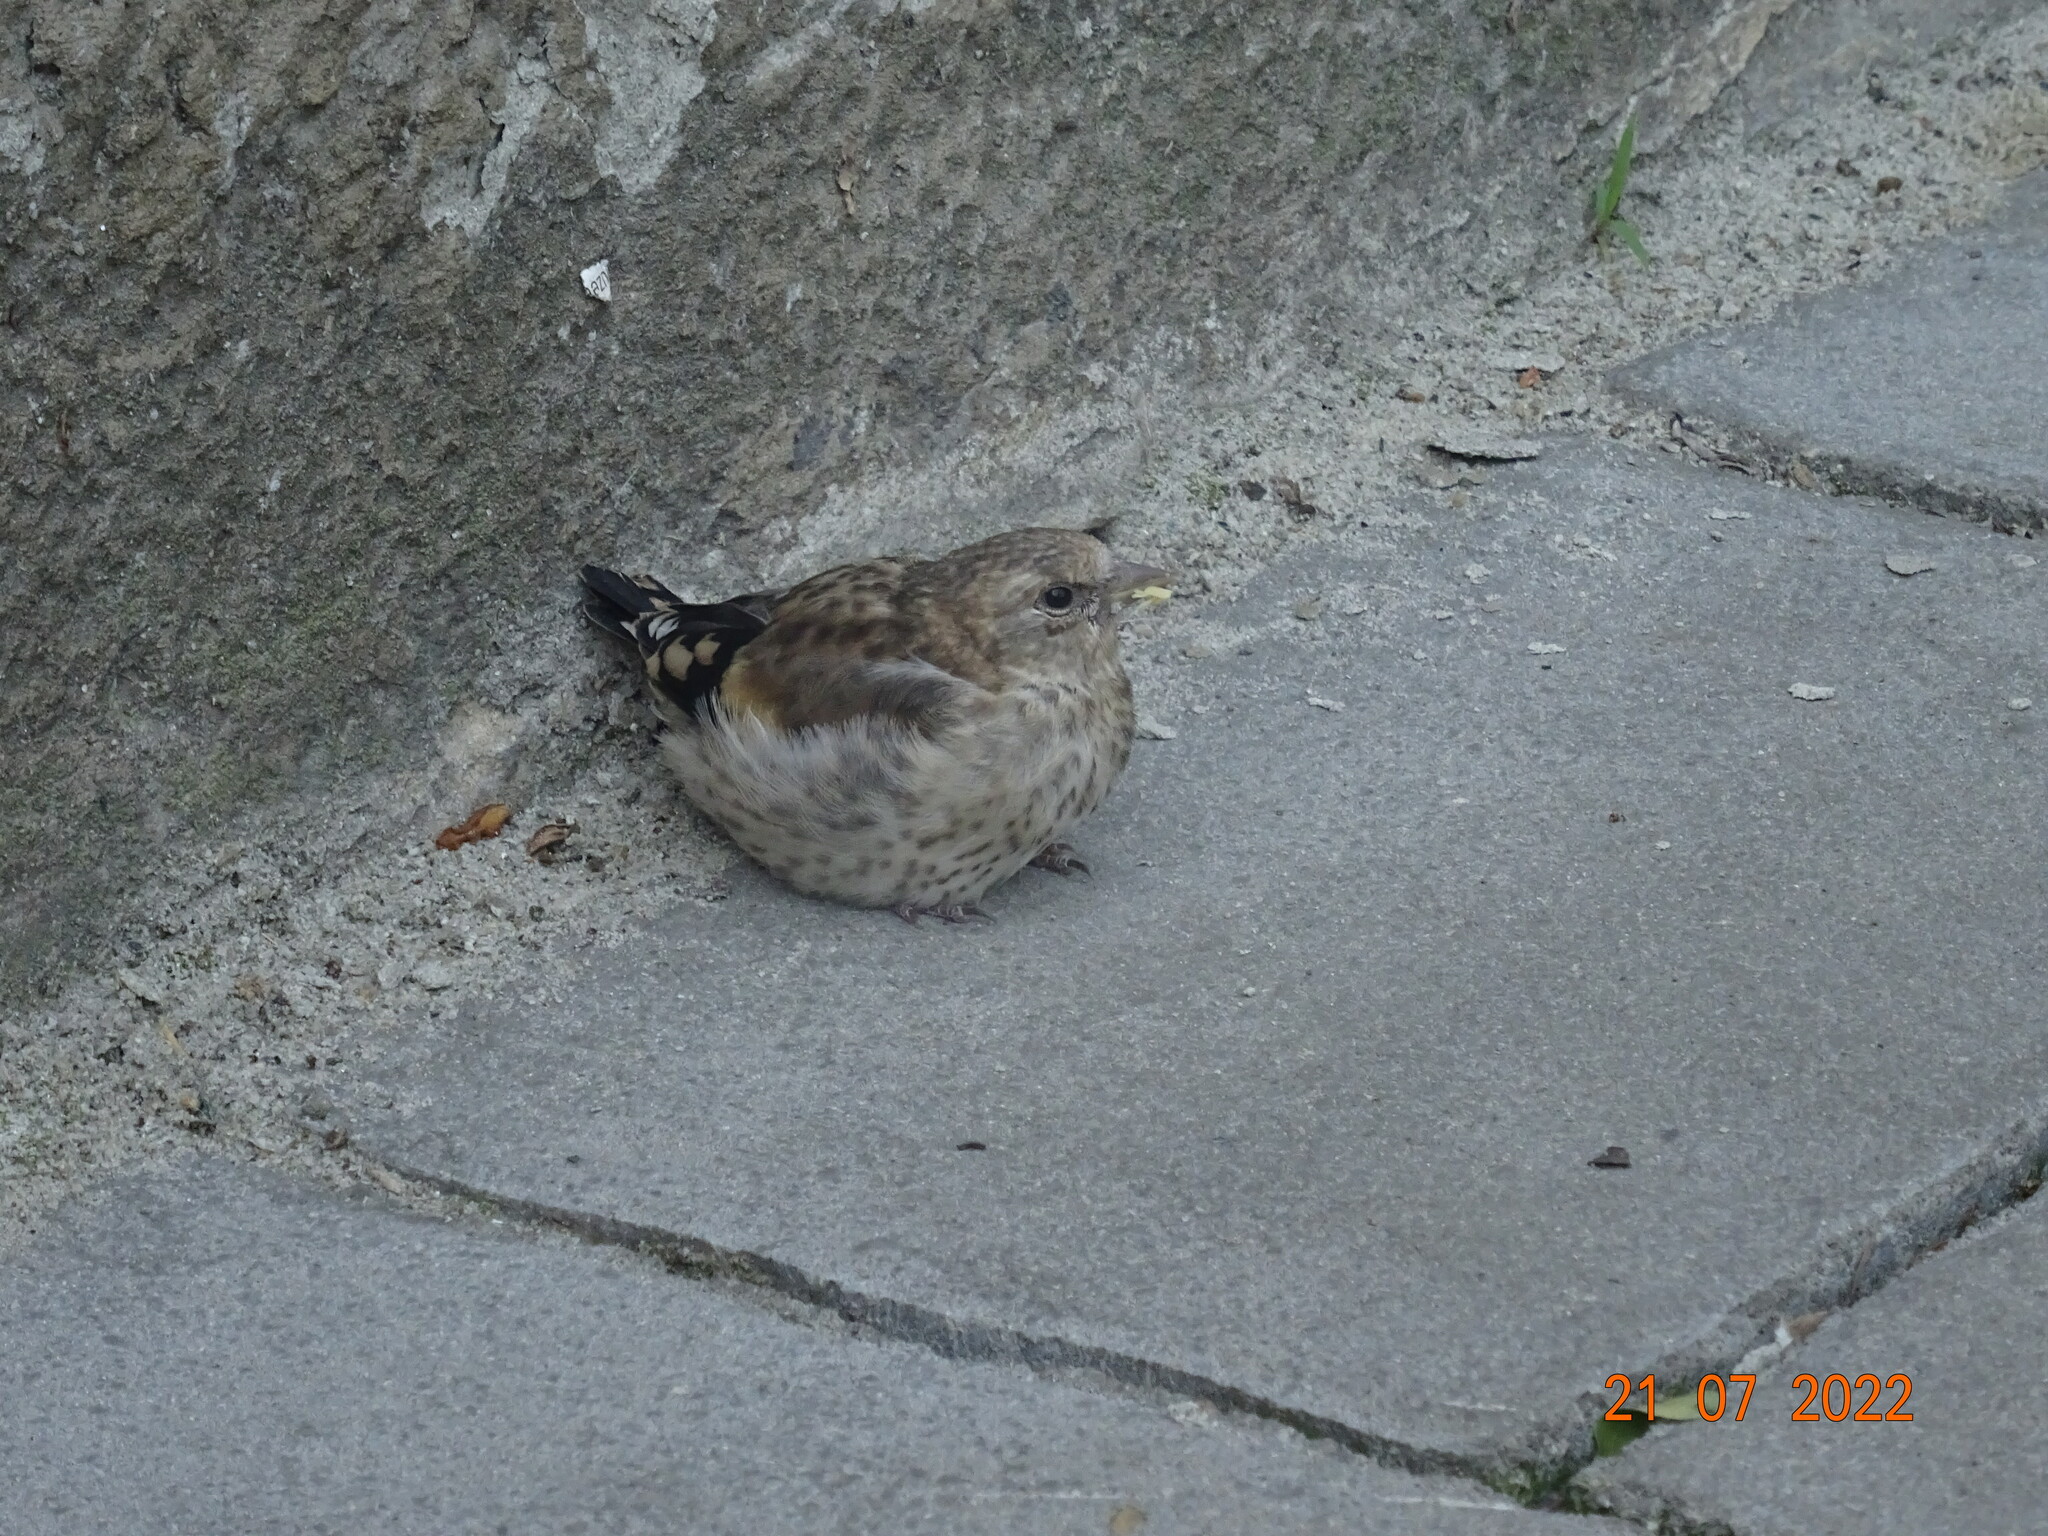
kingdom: Animalia
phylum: Chordata
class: Aves
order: Passeriformes
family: Fringillidae
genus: Carduelis
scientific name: Carduelis carduelis
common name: European goldfinch
